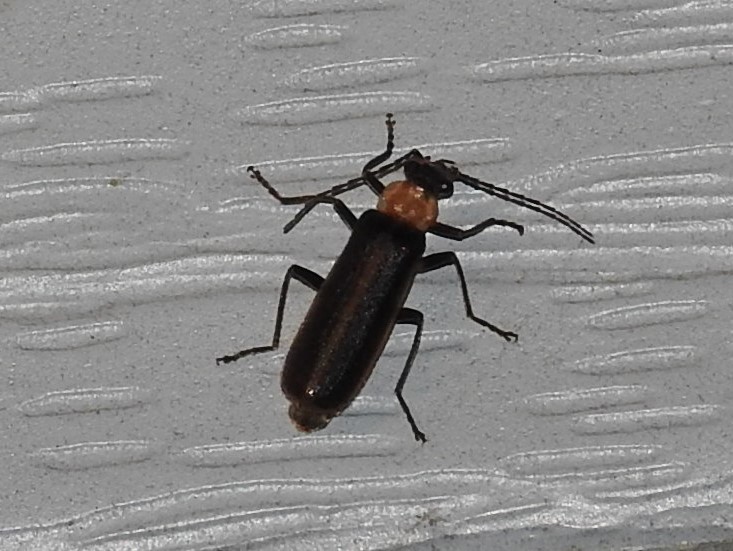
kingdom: Animalia
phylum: Arthropoda
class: Insecta
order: Coleoptera
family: Cantharidae
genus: Podabrus
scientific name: Podabrus flavicollis
